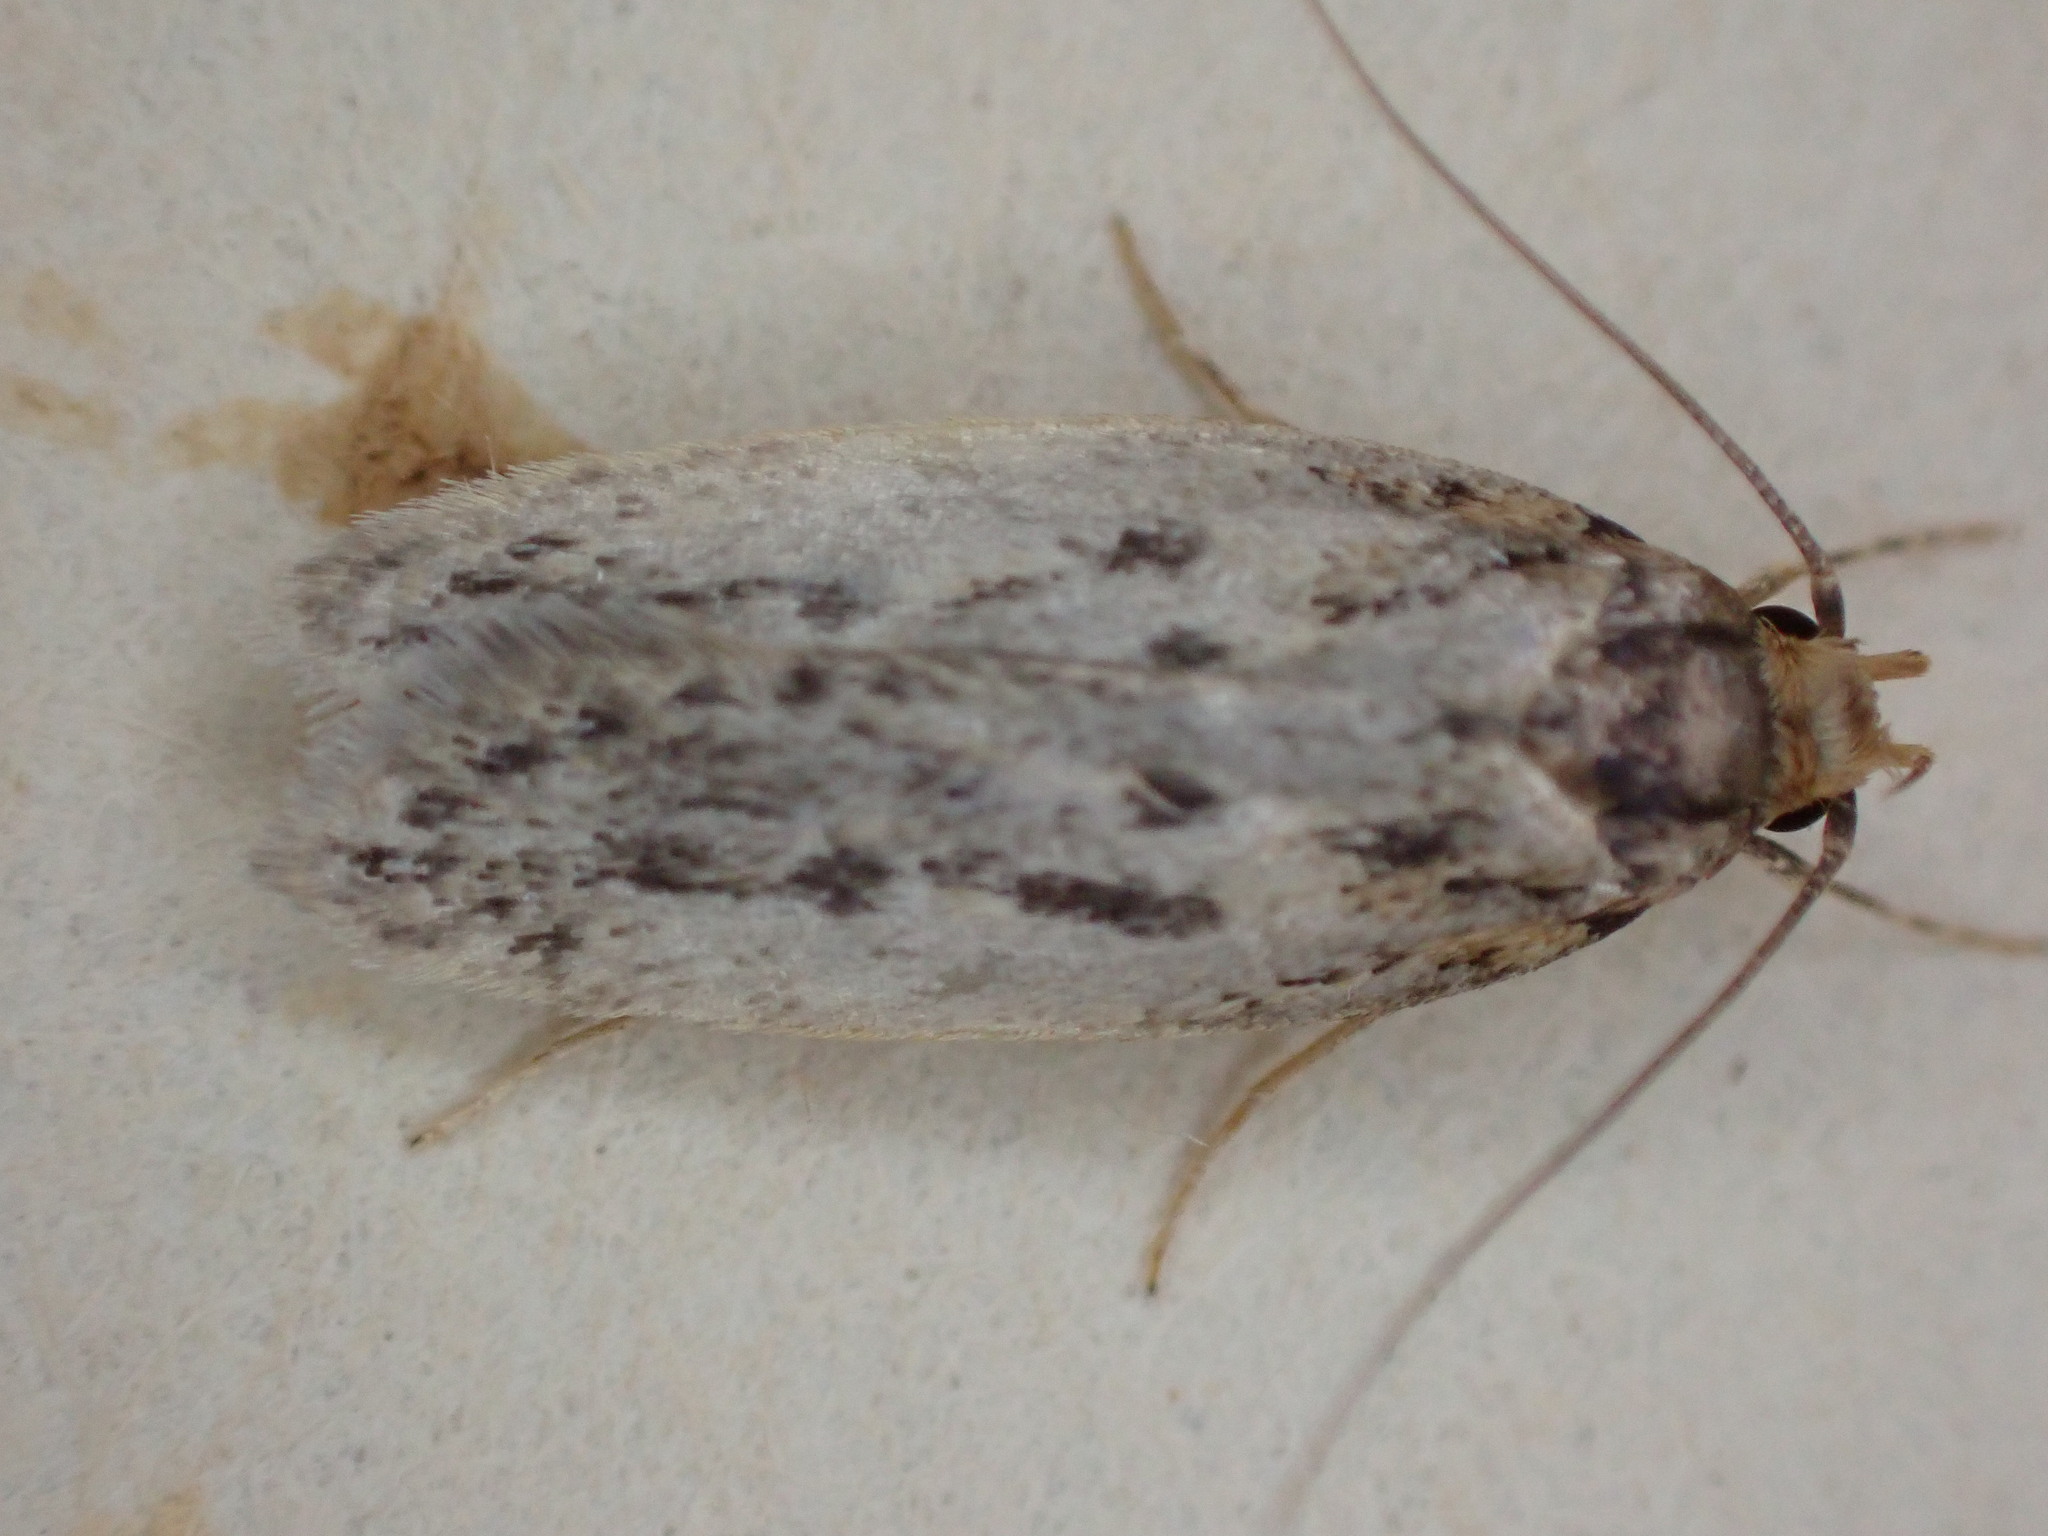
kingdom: Animalia
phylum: Arthropoda
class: Insecta
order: Lepidoptera
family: Oecophoridae
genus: Hofmannophila
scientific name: Hofmannophila pseudospretella
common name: Brown house moth
